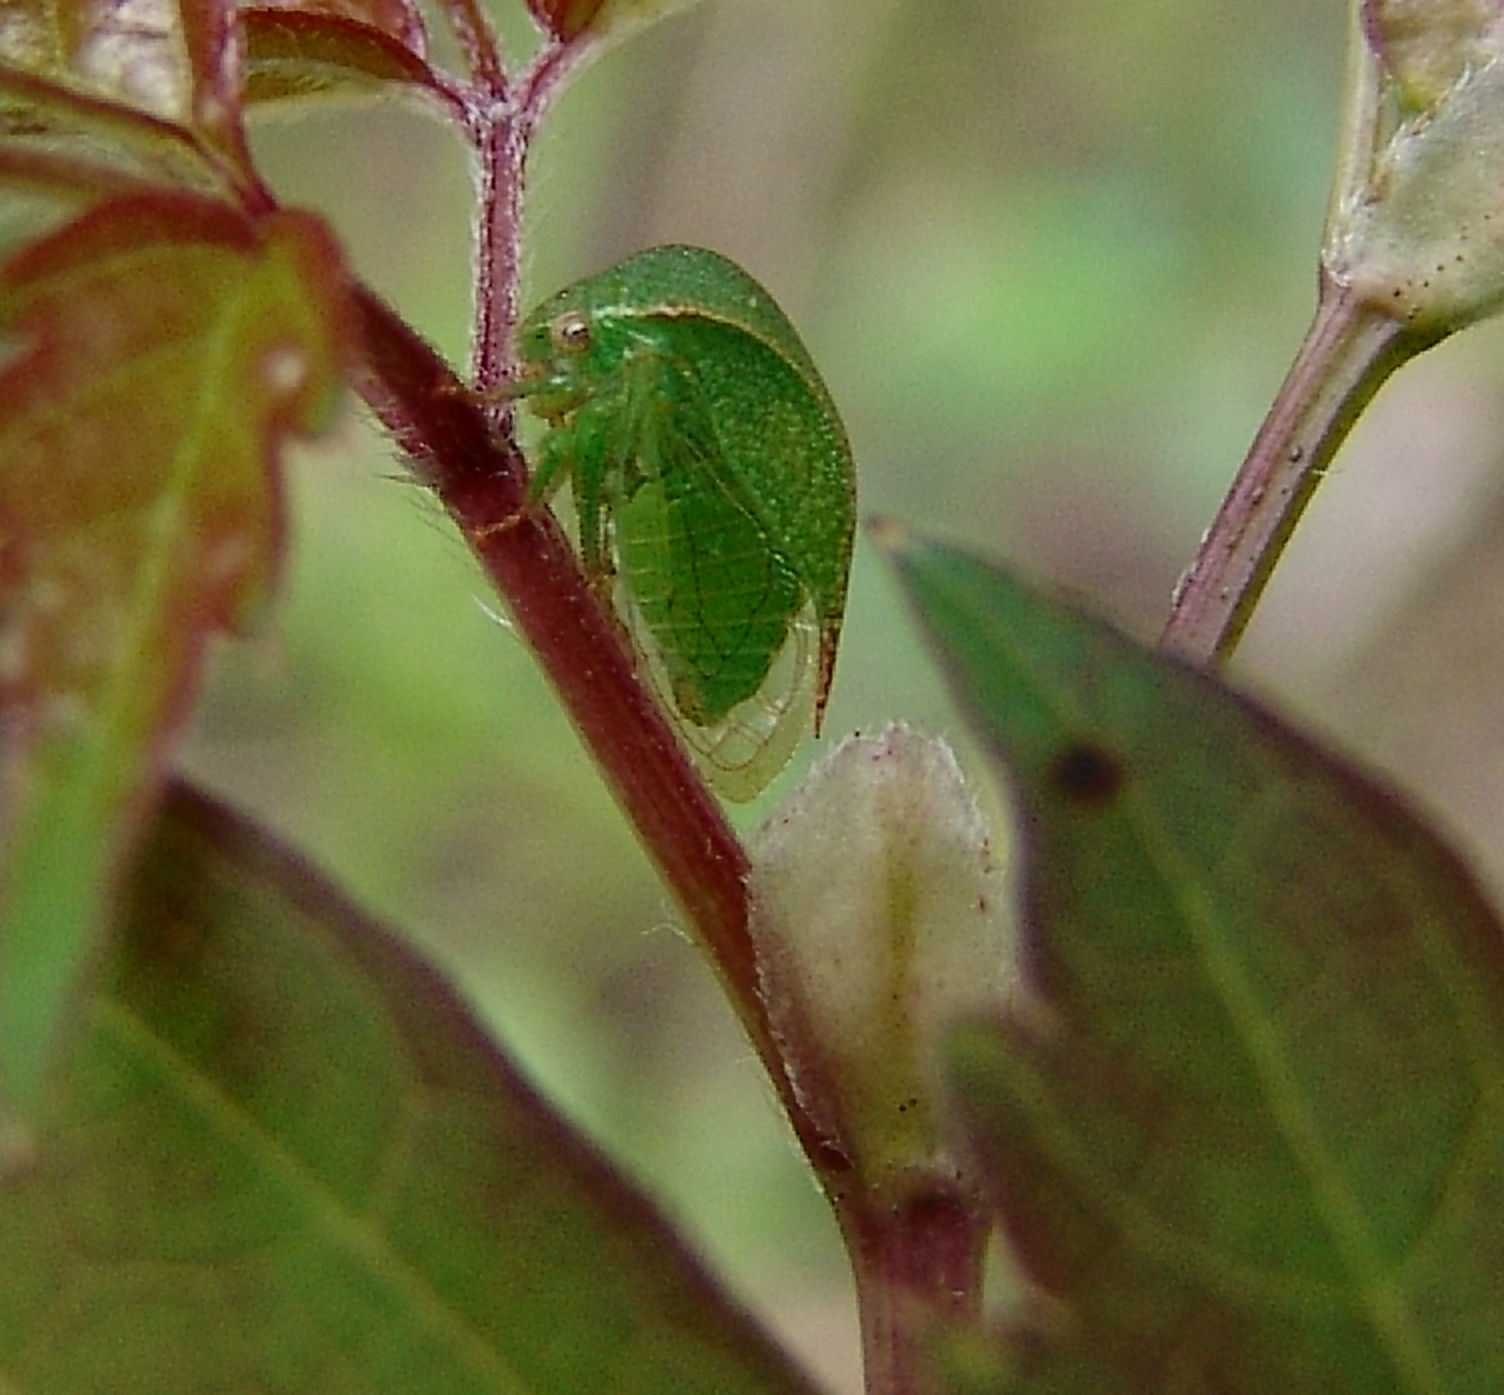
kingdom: Animalia
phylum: Arthropoda
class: Insecta
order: Hemiptera
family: Membracidae
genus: Spissistilus
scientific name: Spissistilus festina
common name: Membracid bug
